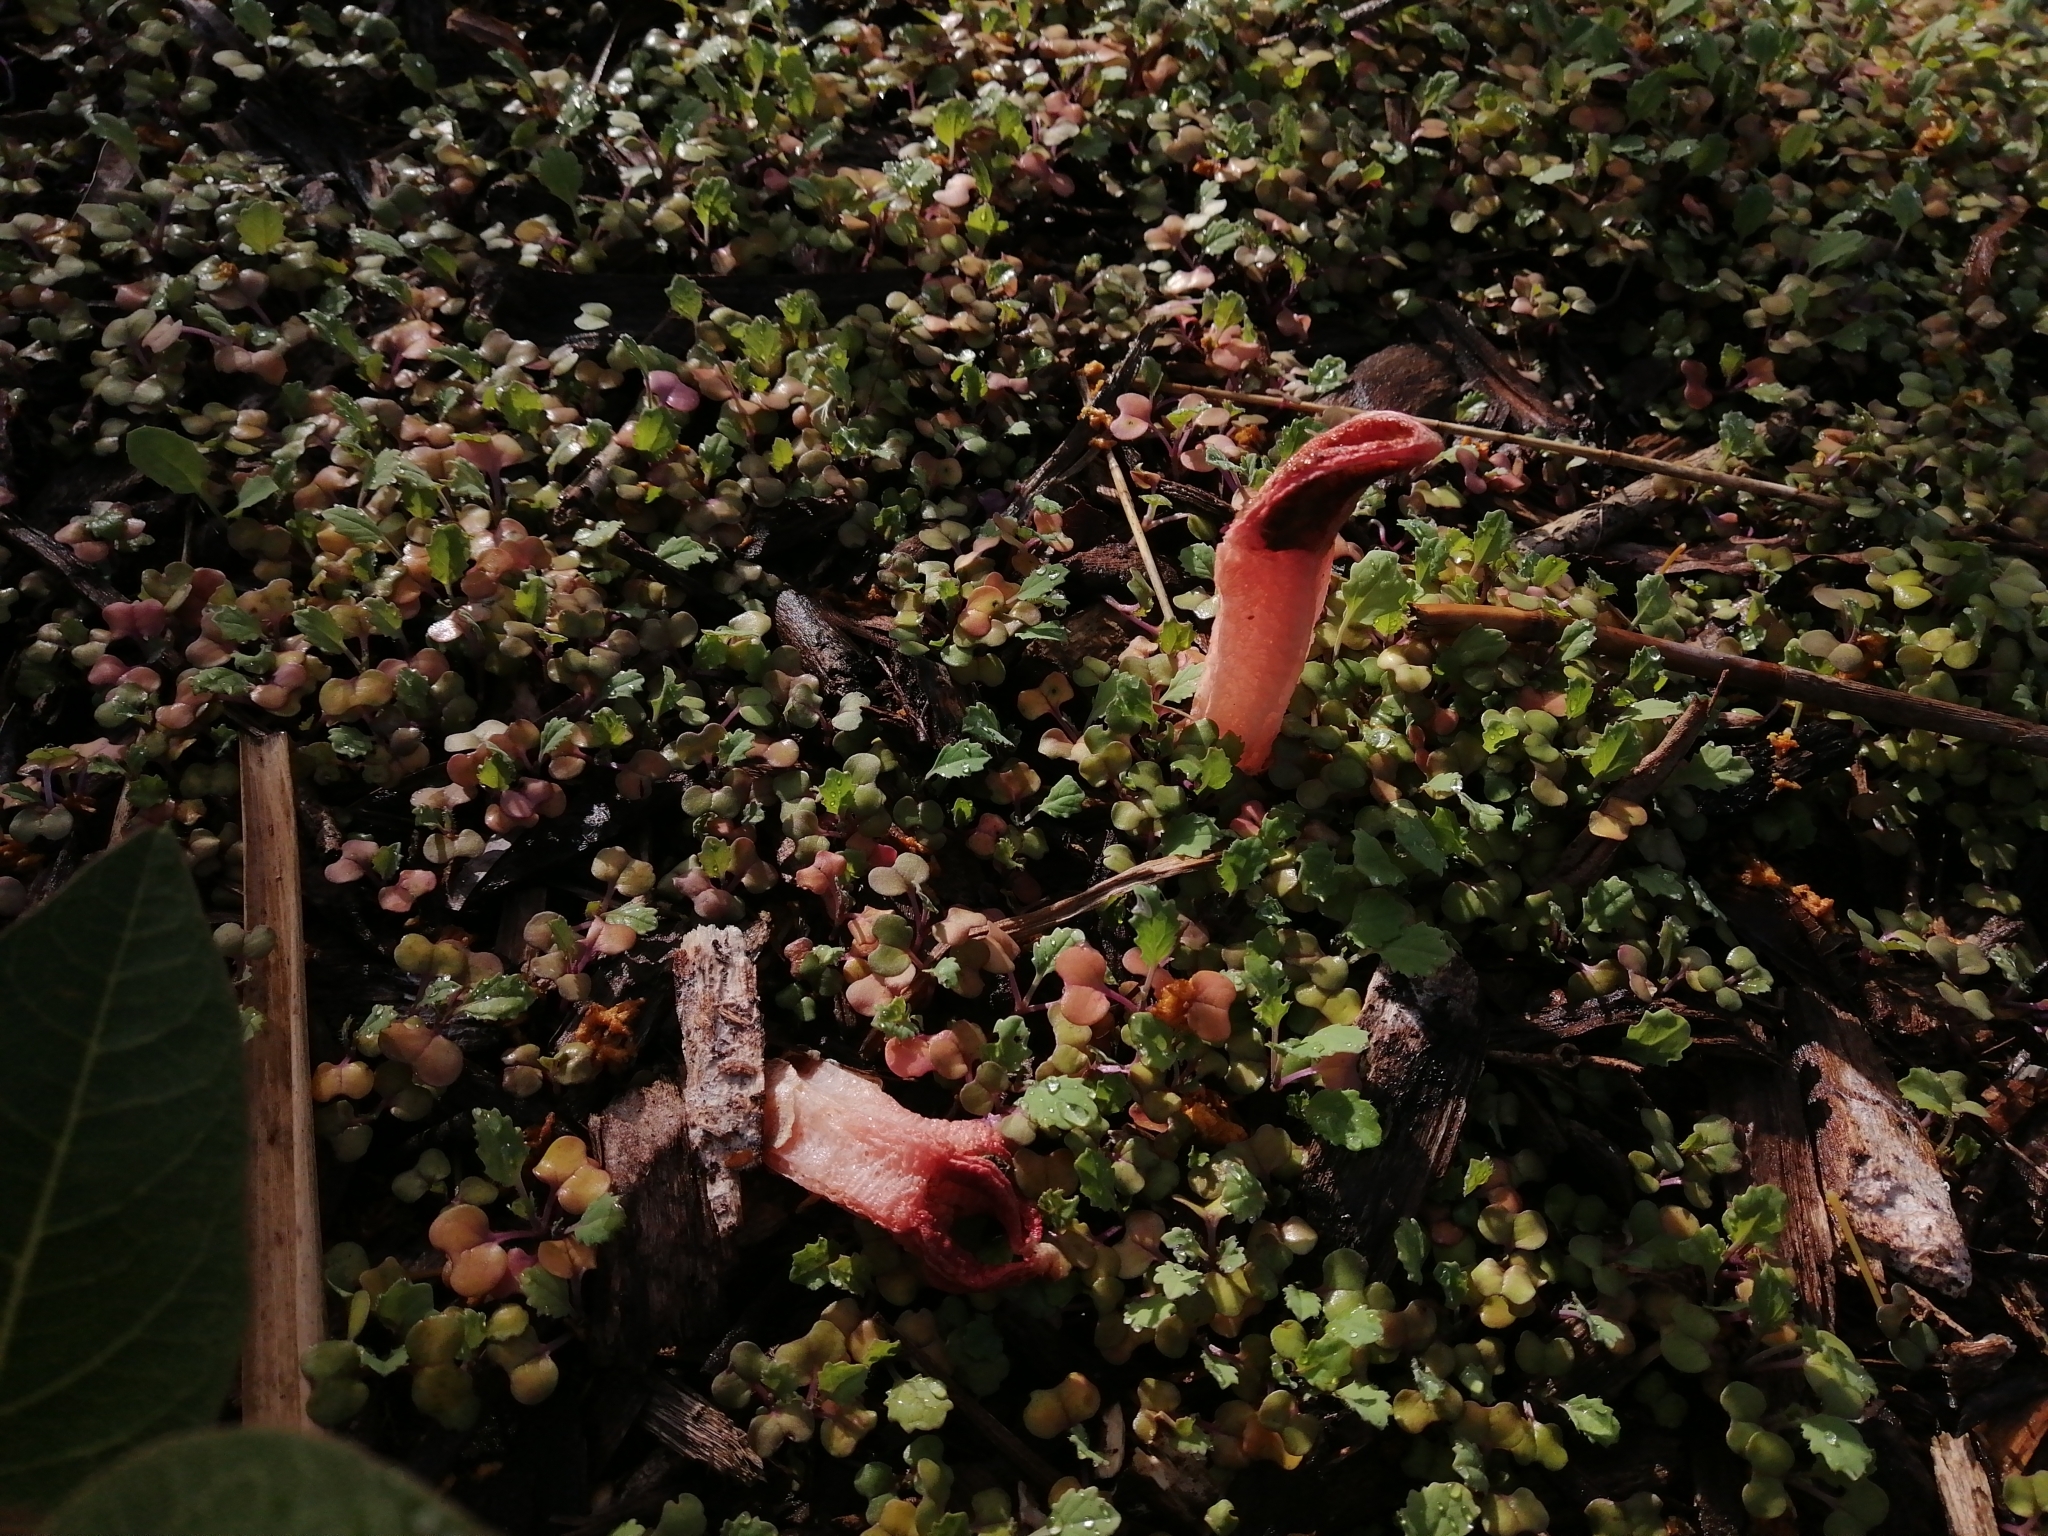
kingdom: Fungi
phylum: Basidiomycota
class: Agaricomycetes
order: Phallales
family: Phallaceae
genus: Lysurus
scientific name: Lysurus mokusin
